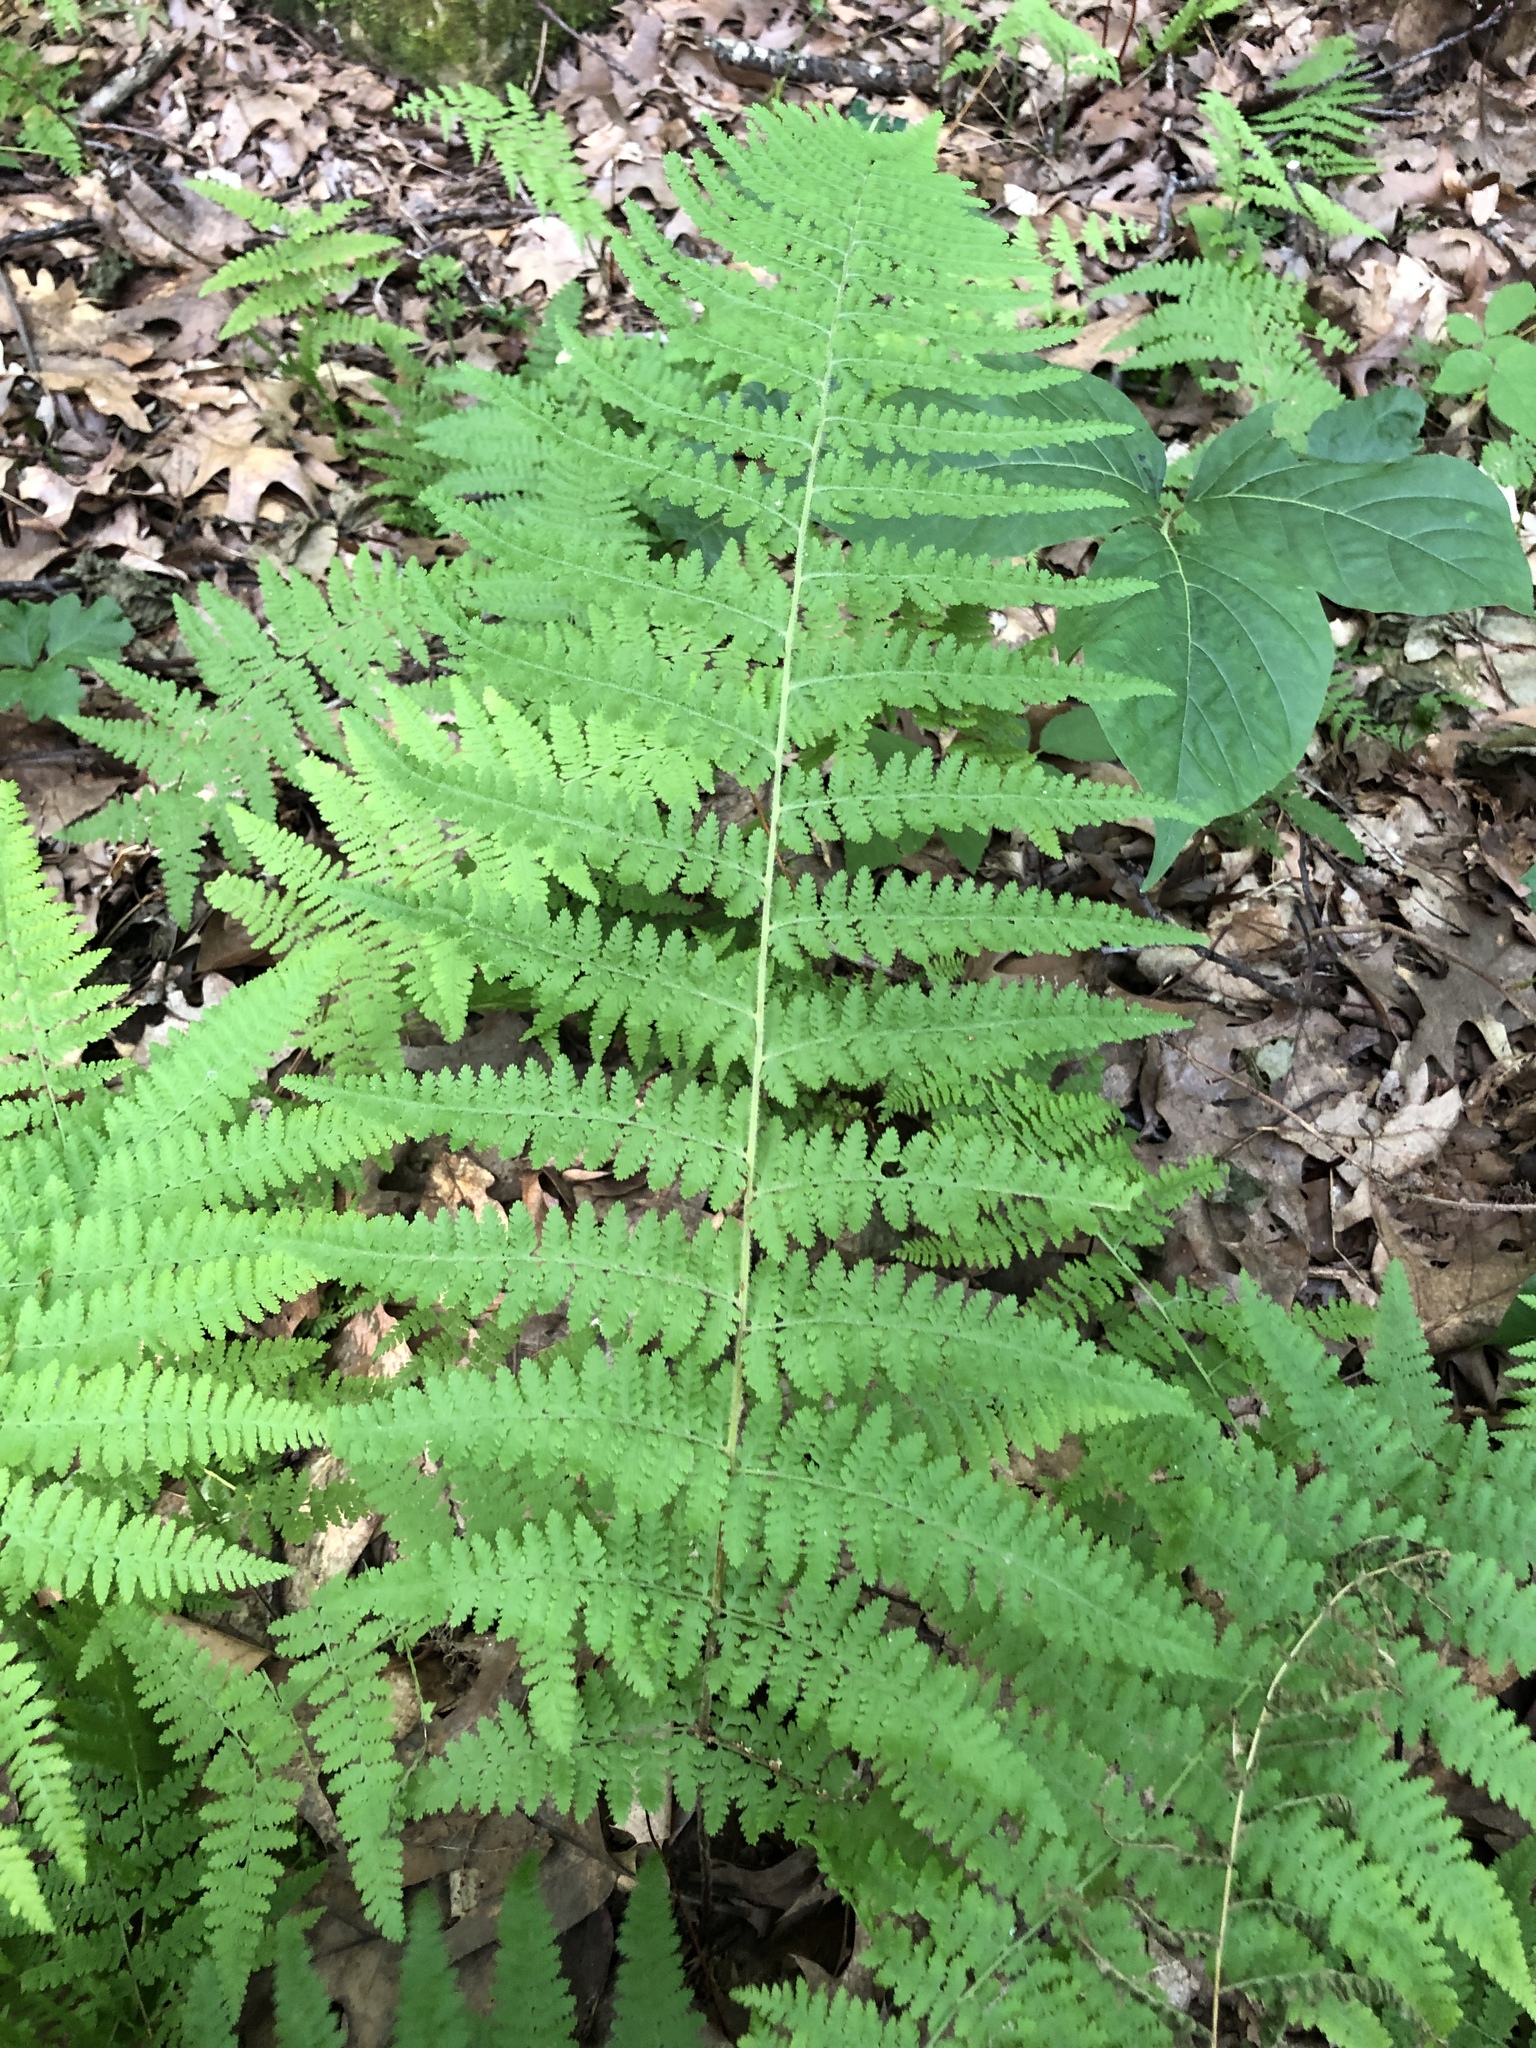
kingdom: Plantae
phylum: Tracheophyta
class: Polypodiopsida
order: Polypodiales
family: Dennstaedtiaceae
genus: Sitobolium
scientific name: Sitobolium punctilobum
